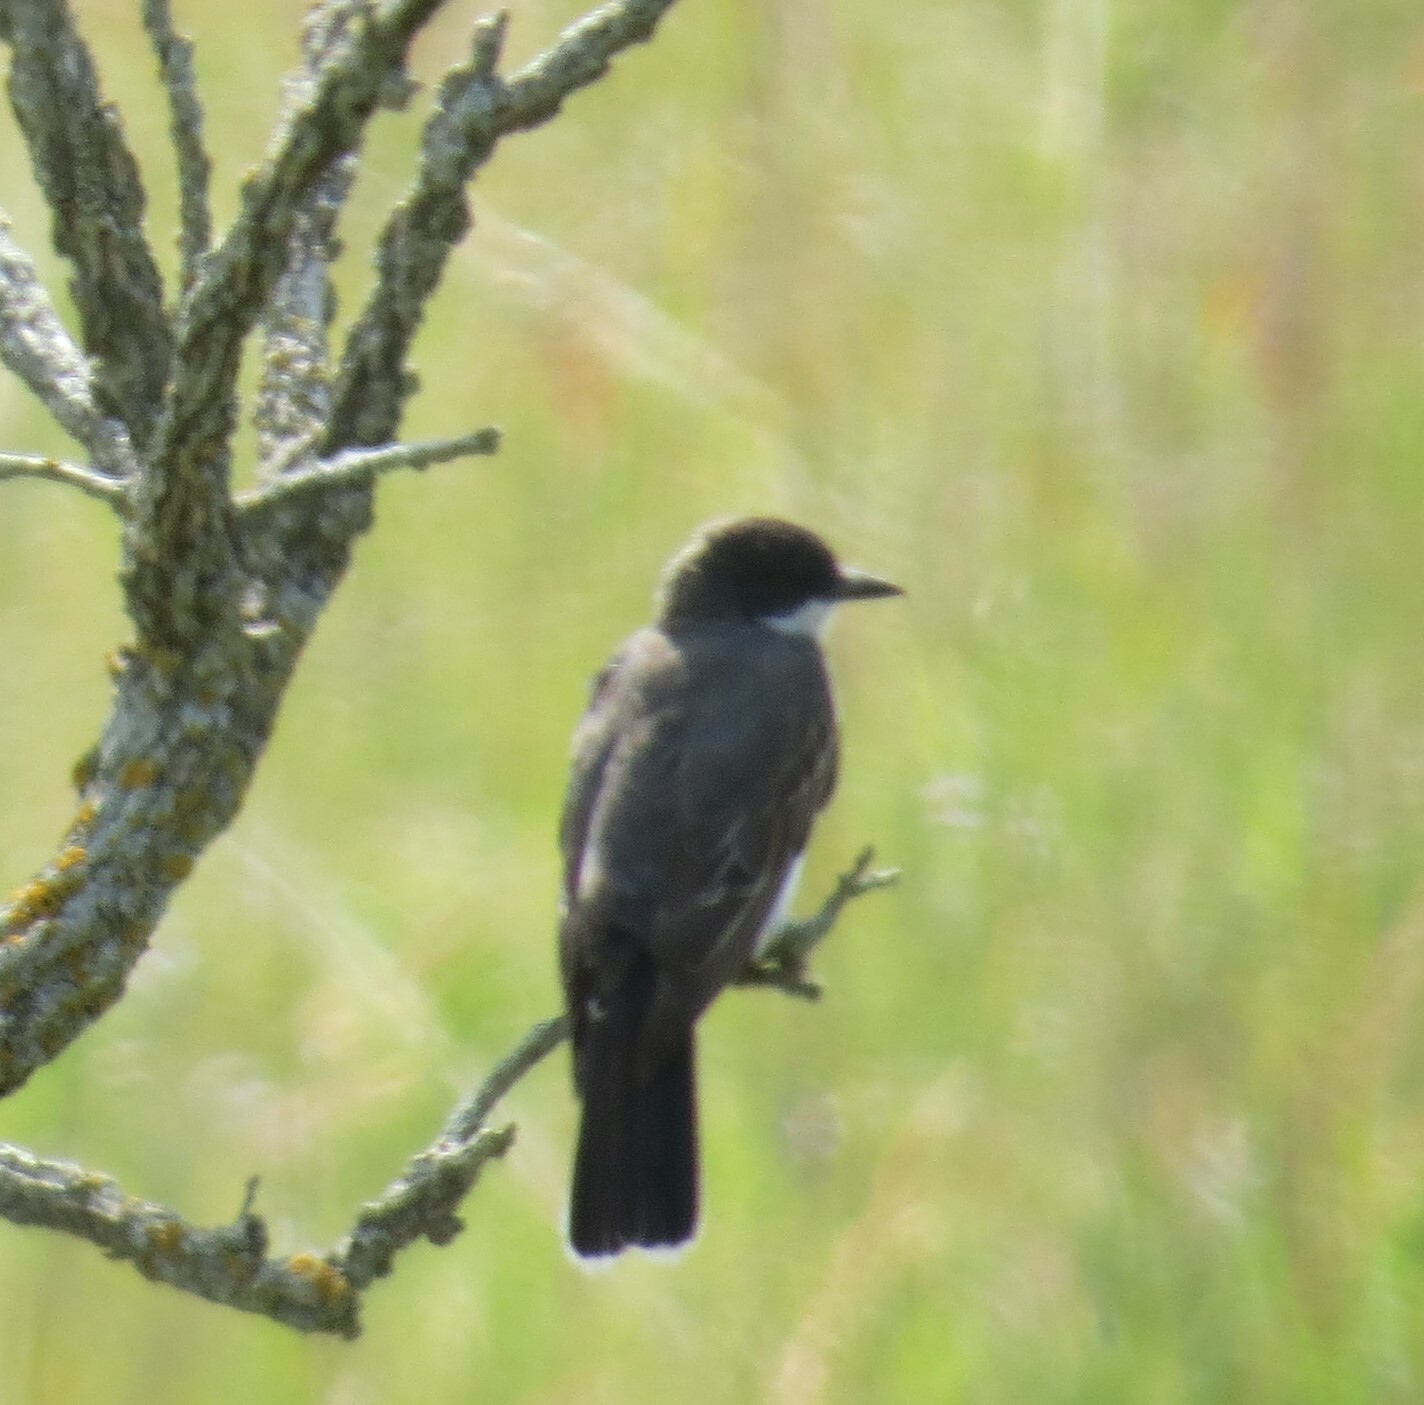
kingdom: Animalia
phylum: Chordata
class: Aves
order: Passeriformes
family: Tyrannidae
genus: Tyrannus
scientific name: Tyrannus tyrannus
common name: Eastern kingbird
